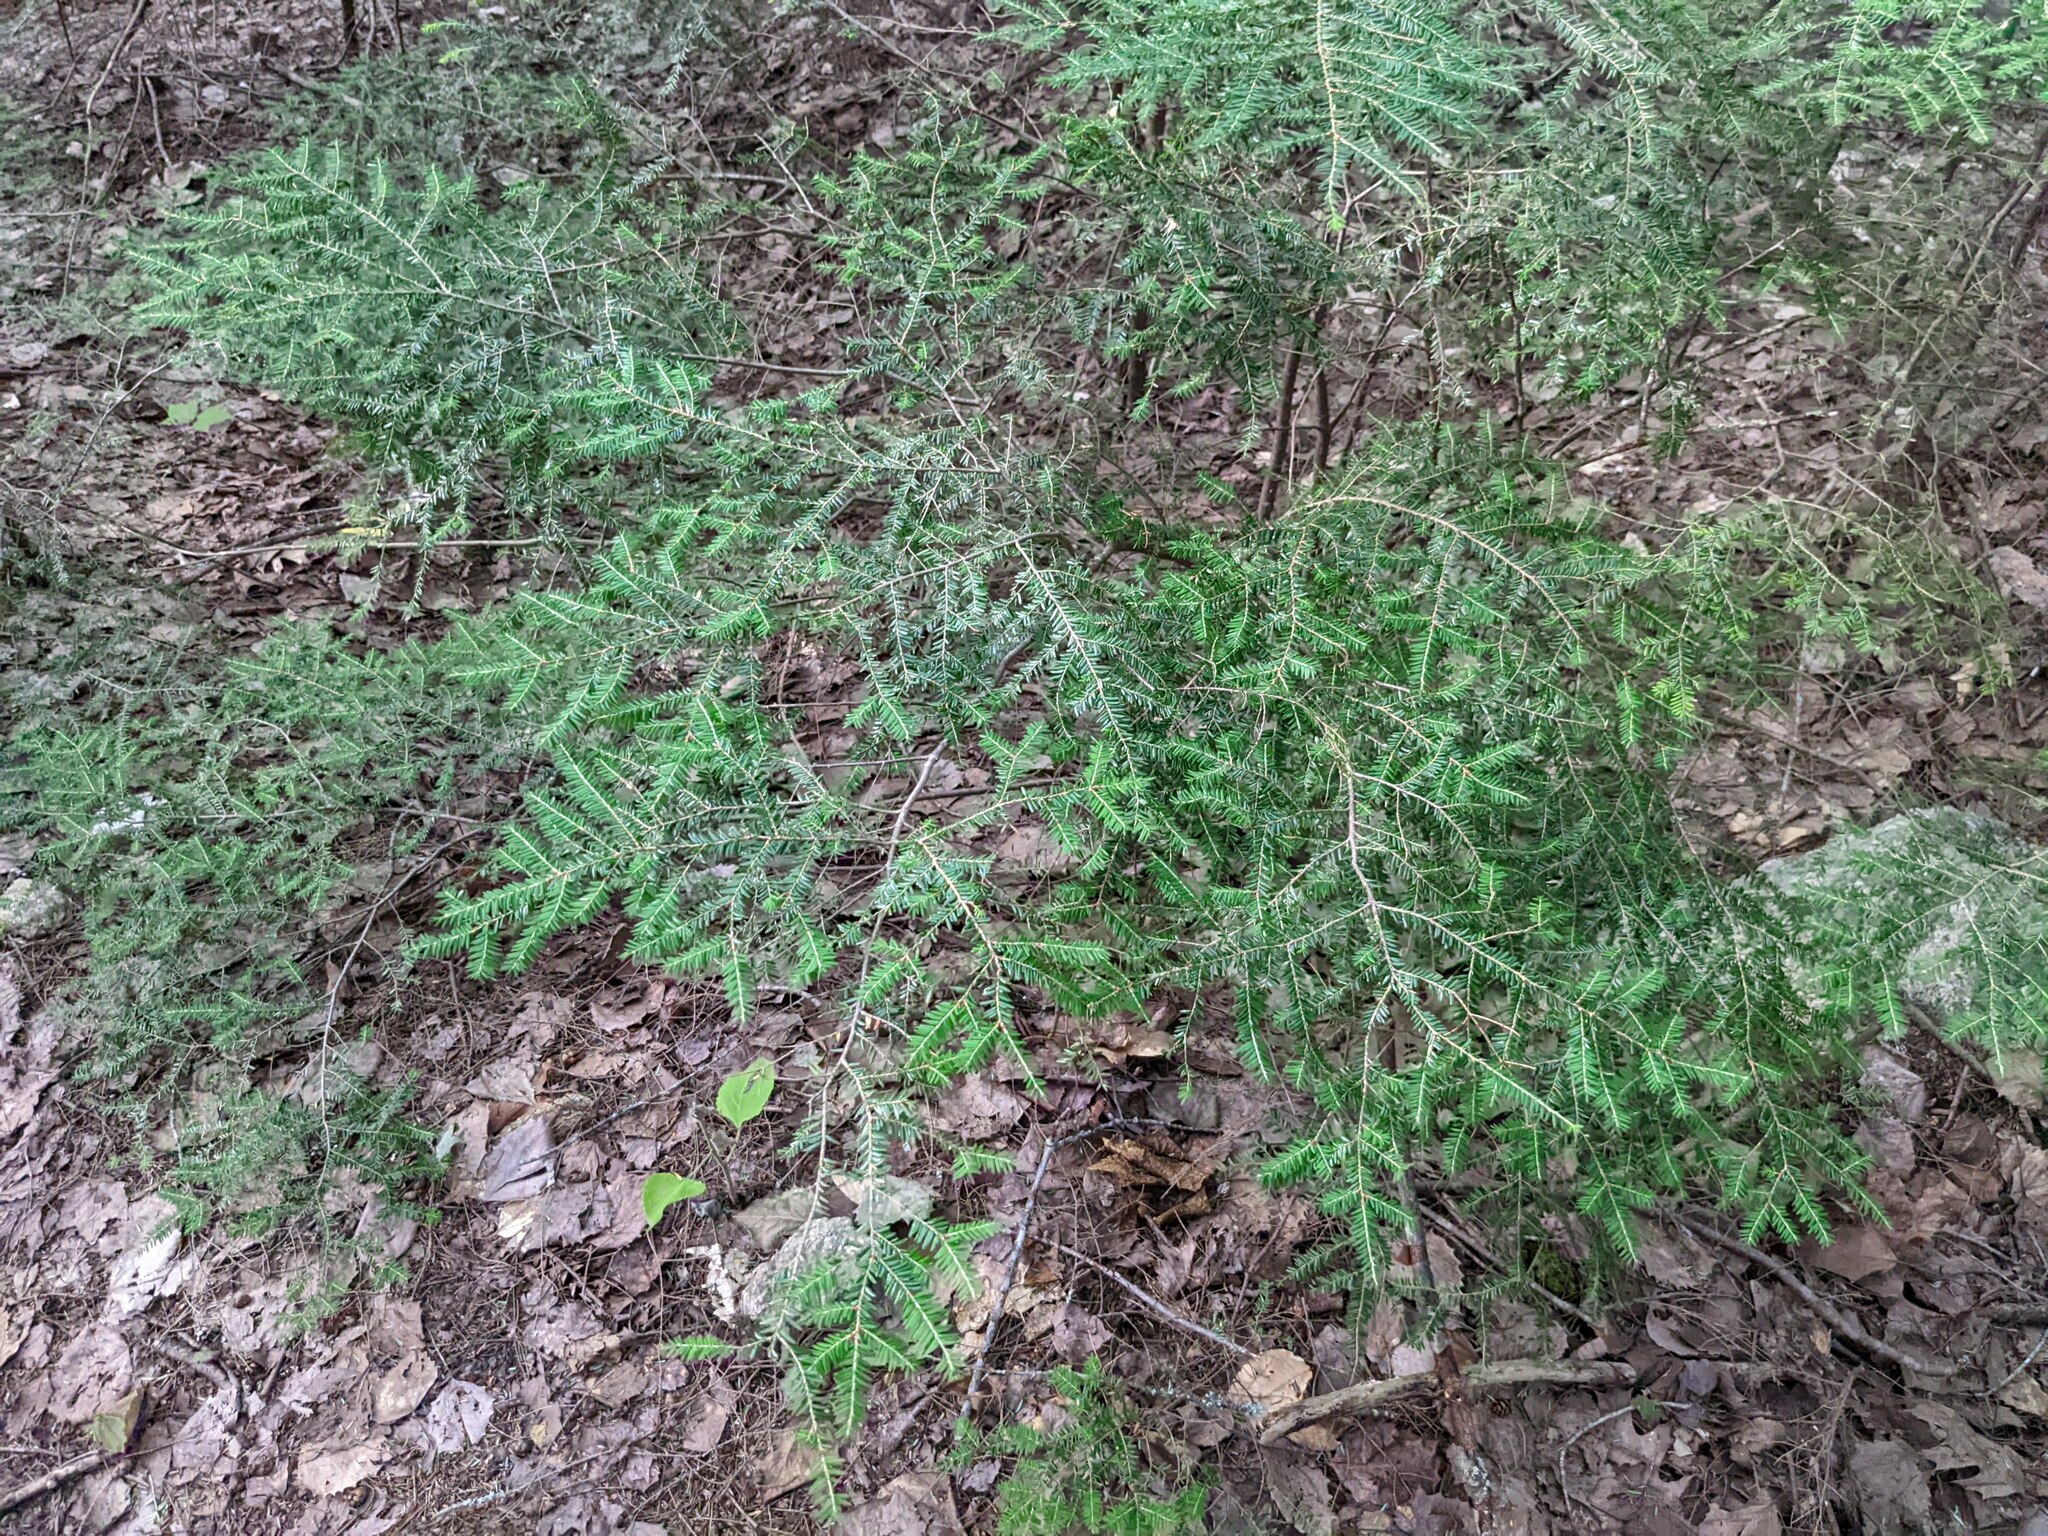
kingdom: Plantae
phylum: Tracheophyta
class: Pinopsida
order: Pinales
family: Pinaceae
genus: Tsuga
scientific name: Tsuga canadensis
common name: Eastern hemlock
